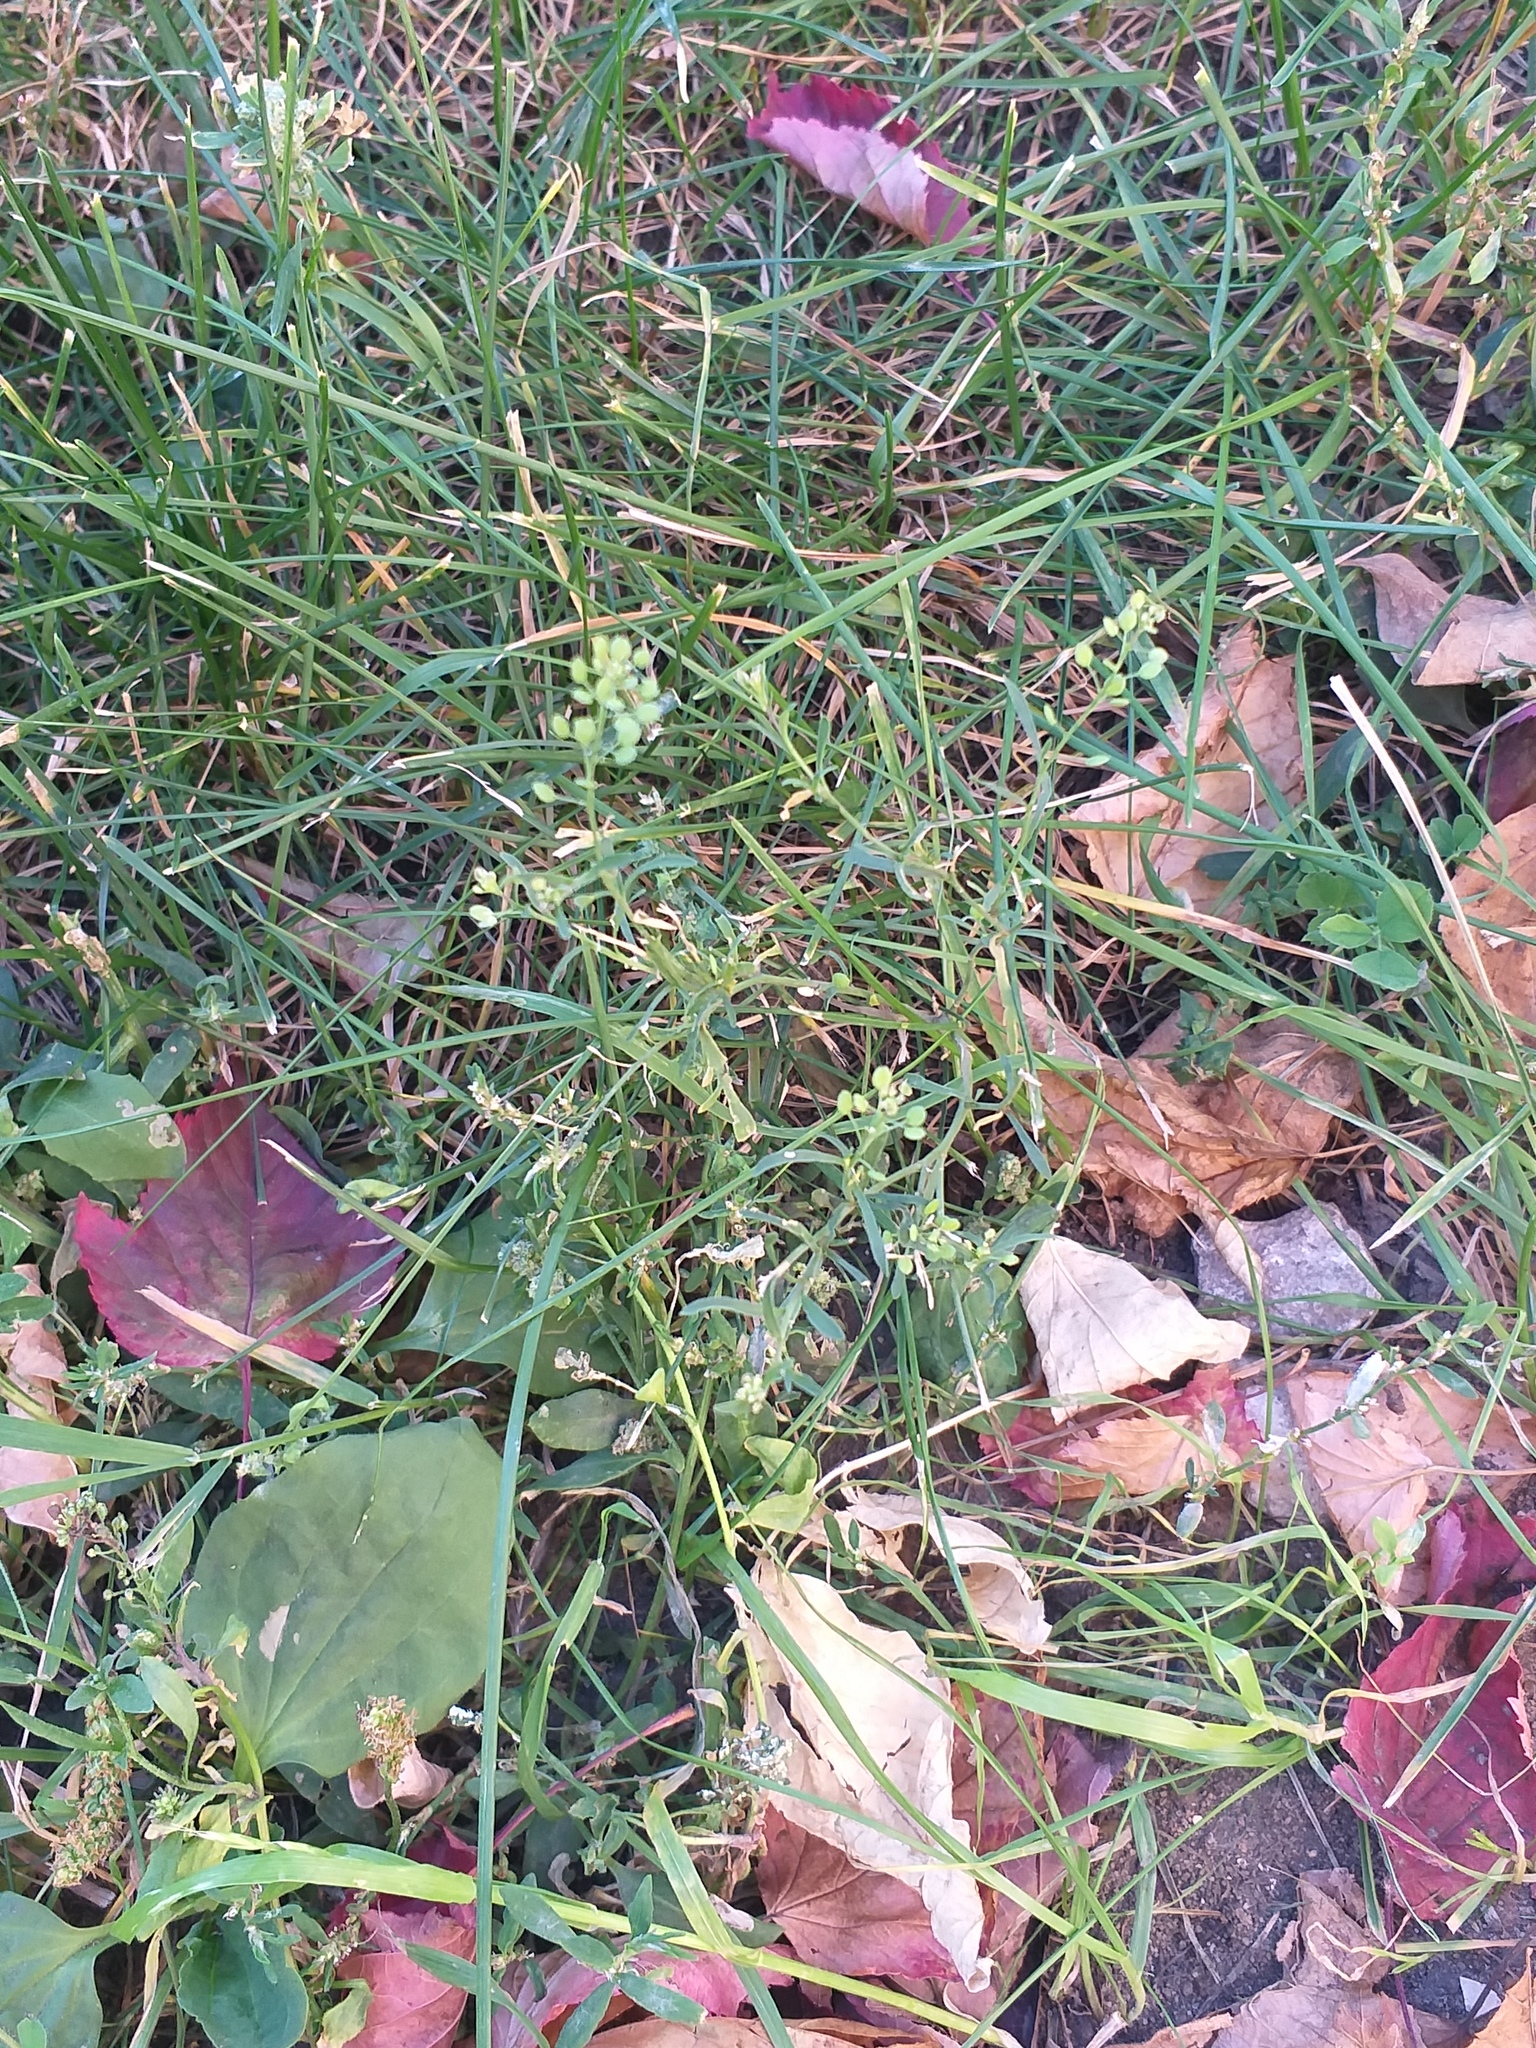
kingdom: Plantae
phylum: Tracheophyta
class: Magnoliopsida
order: Brassicales
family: Brassicaceae
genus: Lepidium
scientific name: Lepidium ruderale
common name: Narrow-leaved pepperwort
